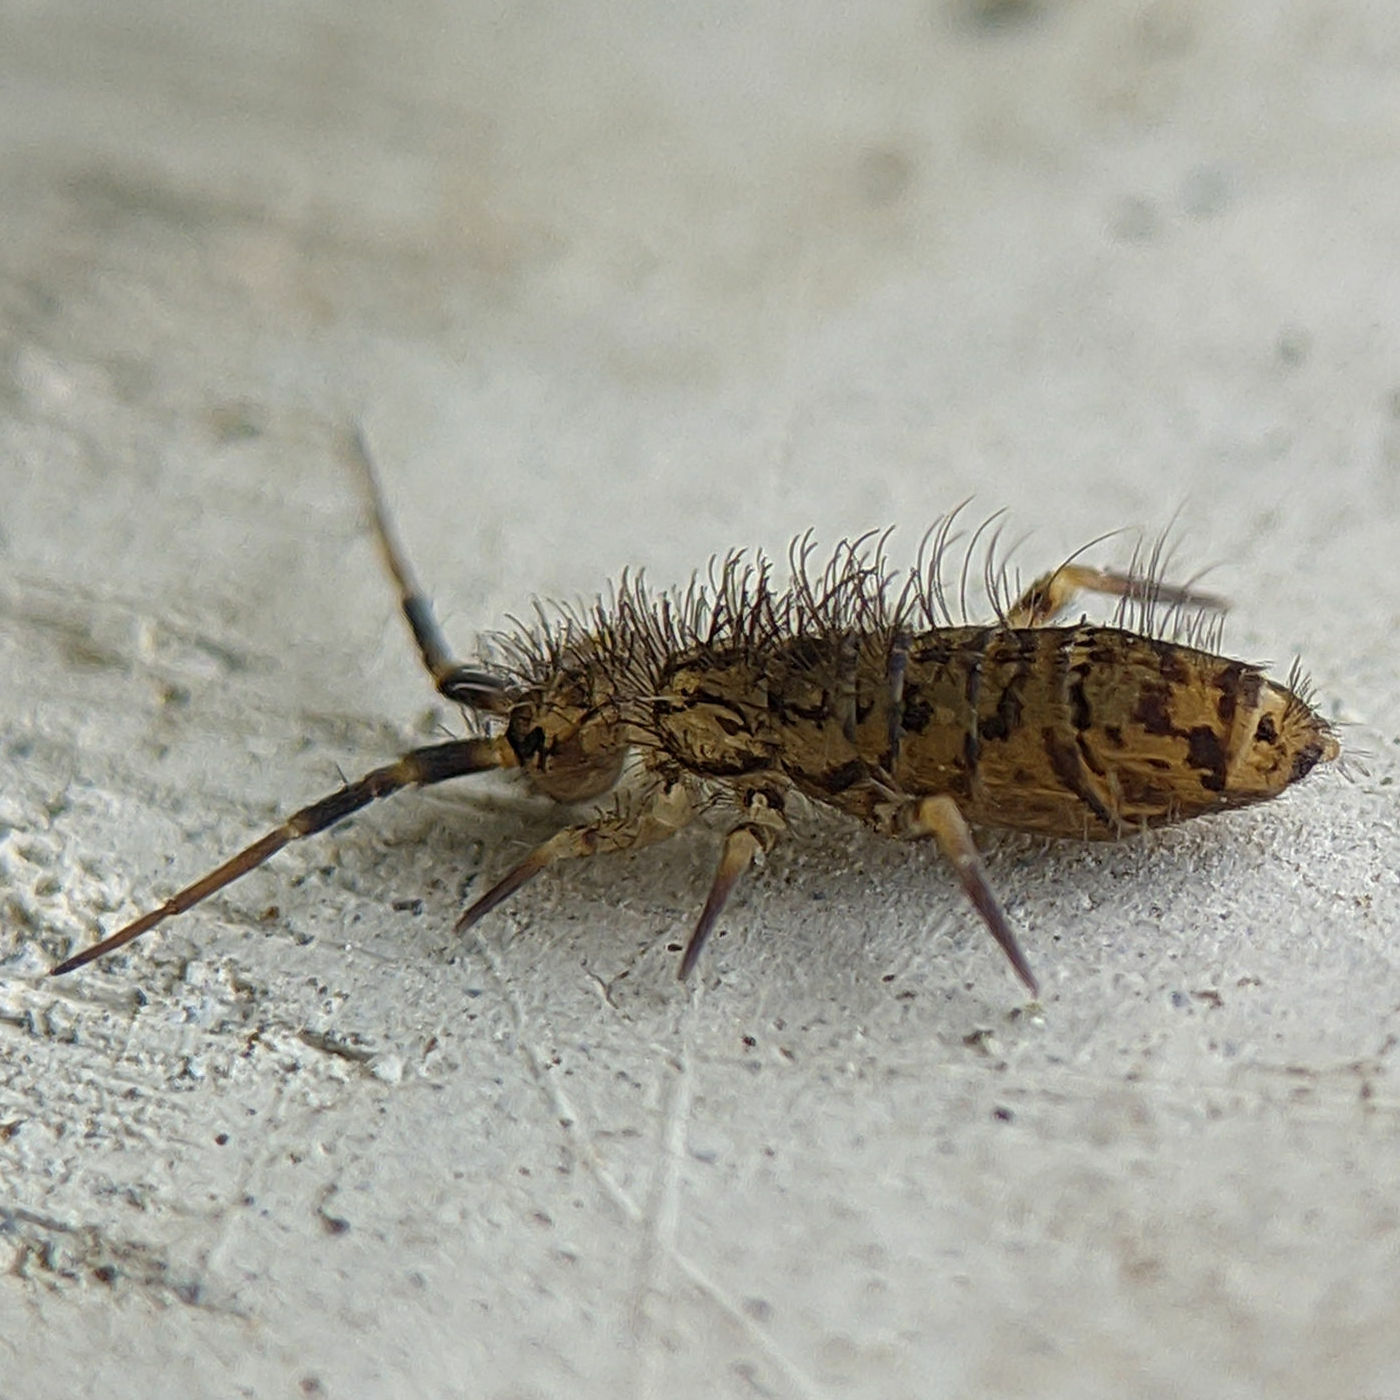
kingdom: Animalia
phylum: Arthropoda
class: Collembola
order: Entomobryomorpha
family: Orchesellidae
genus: Orchesella
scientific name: Orchesella villosa
